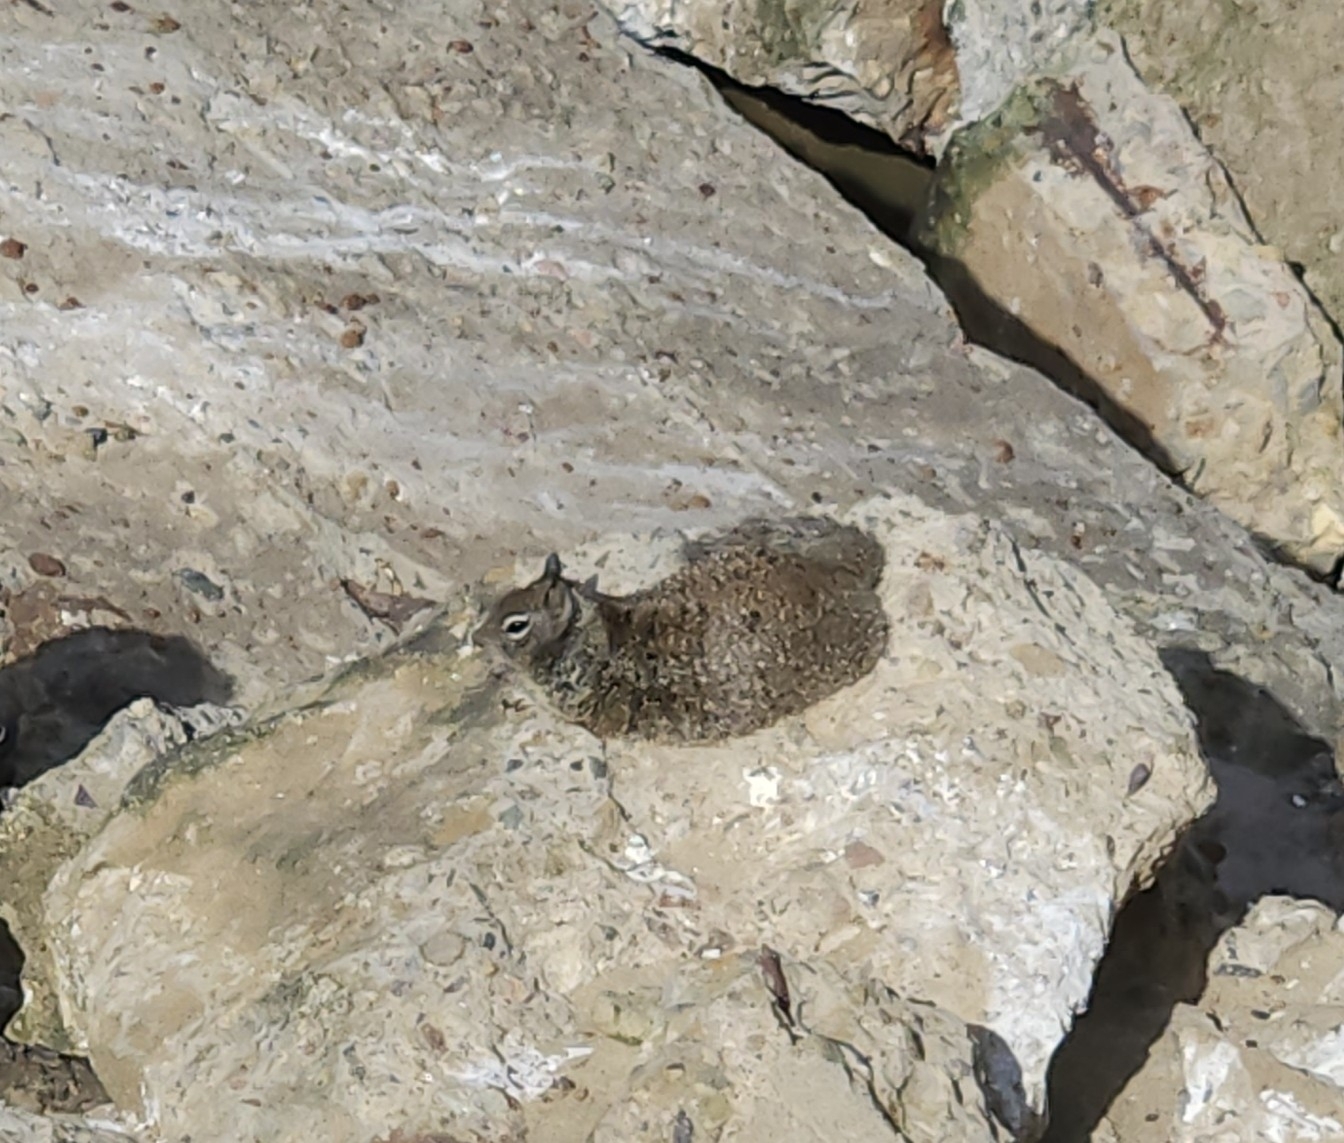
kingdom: Animalia
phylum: Chordata
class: Mammalia
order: Rodentia
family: Sciuridae
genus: Otospermophilus
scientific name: Otospermophilus beecheyi
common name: California ground squirrel
